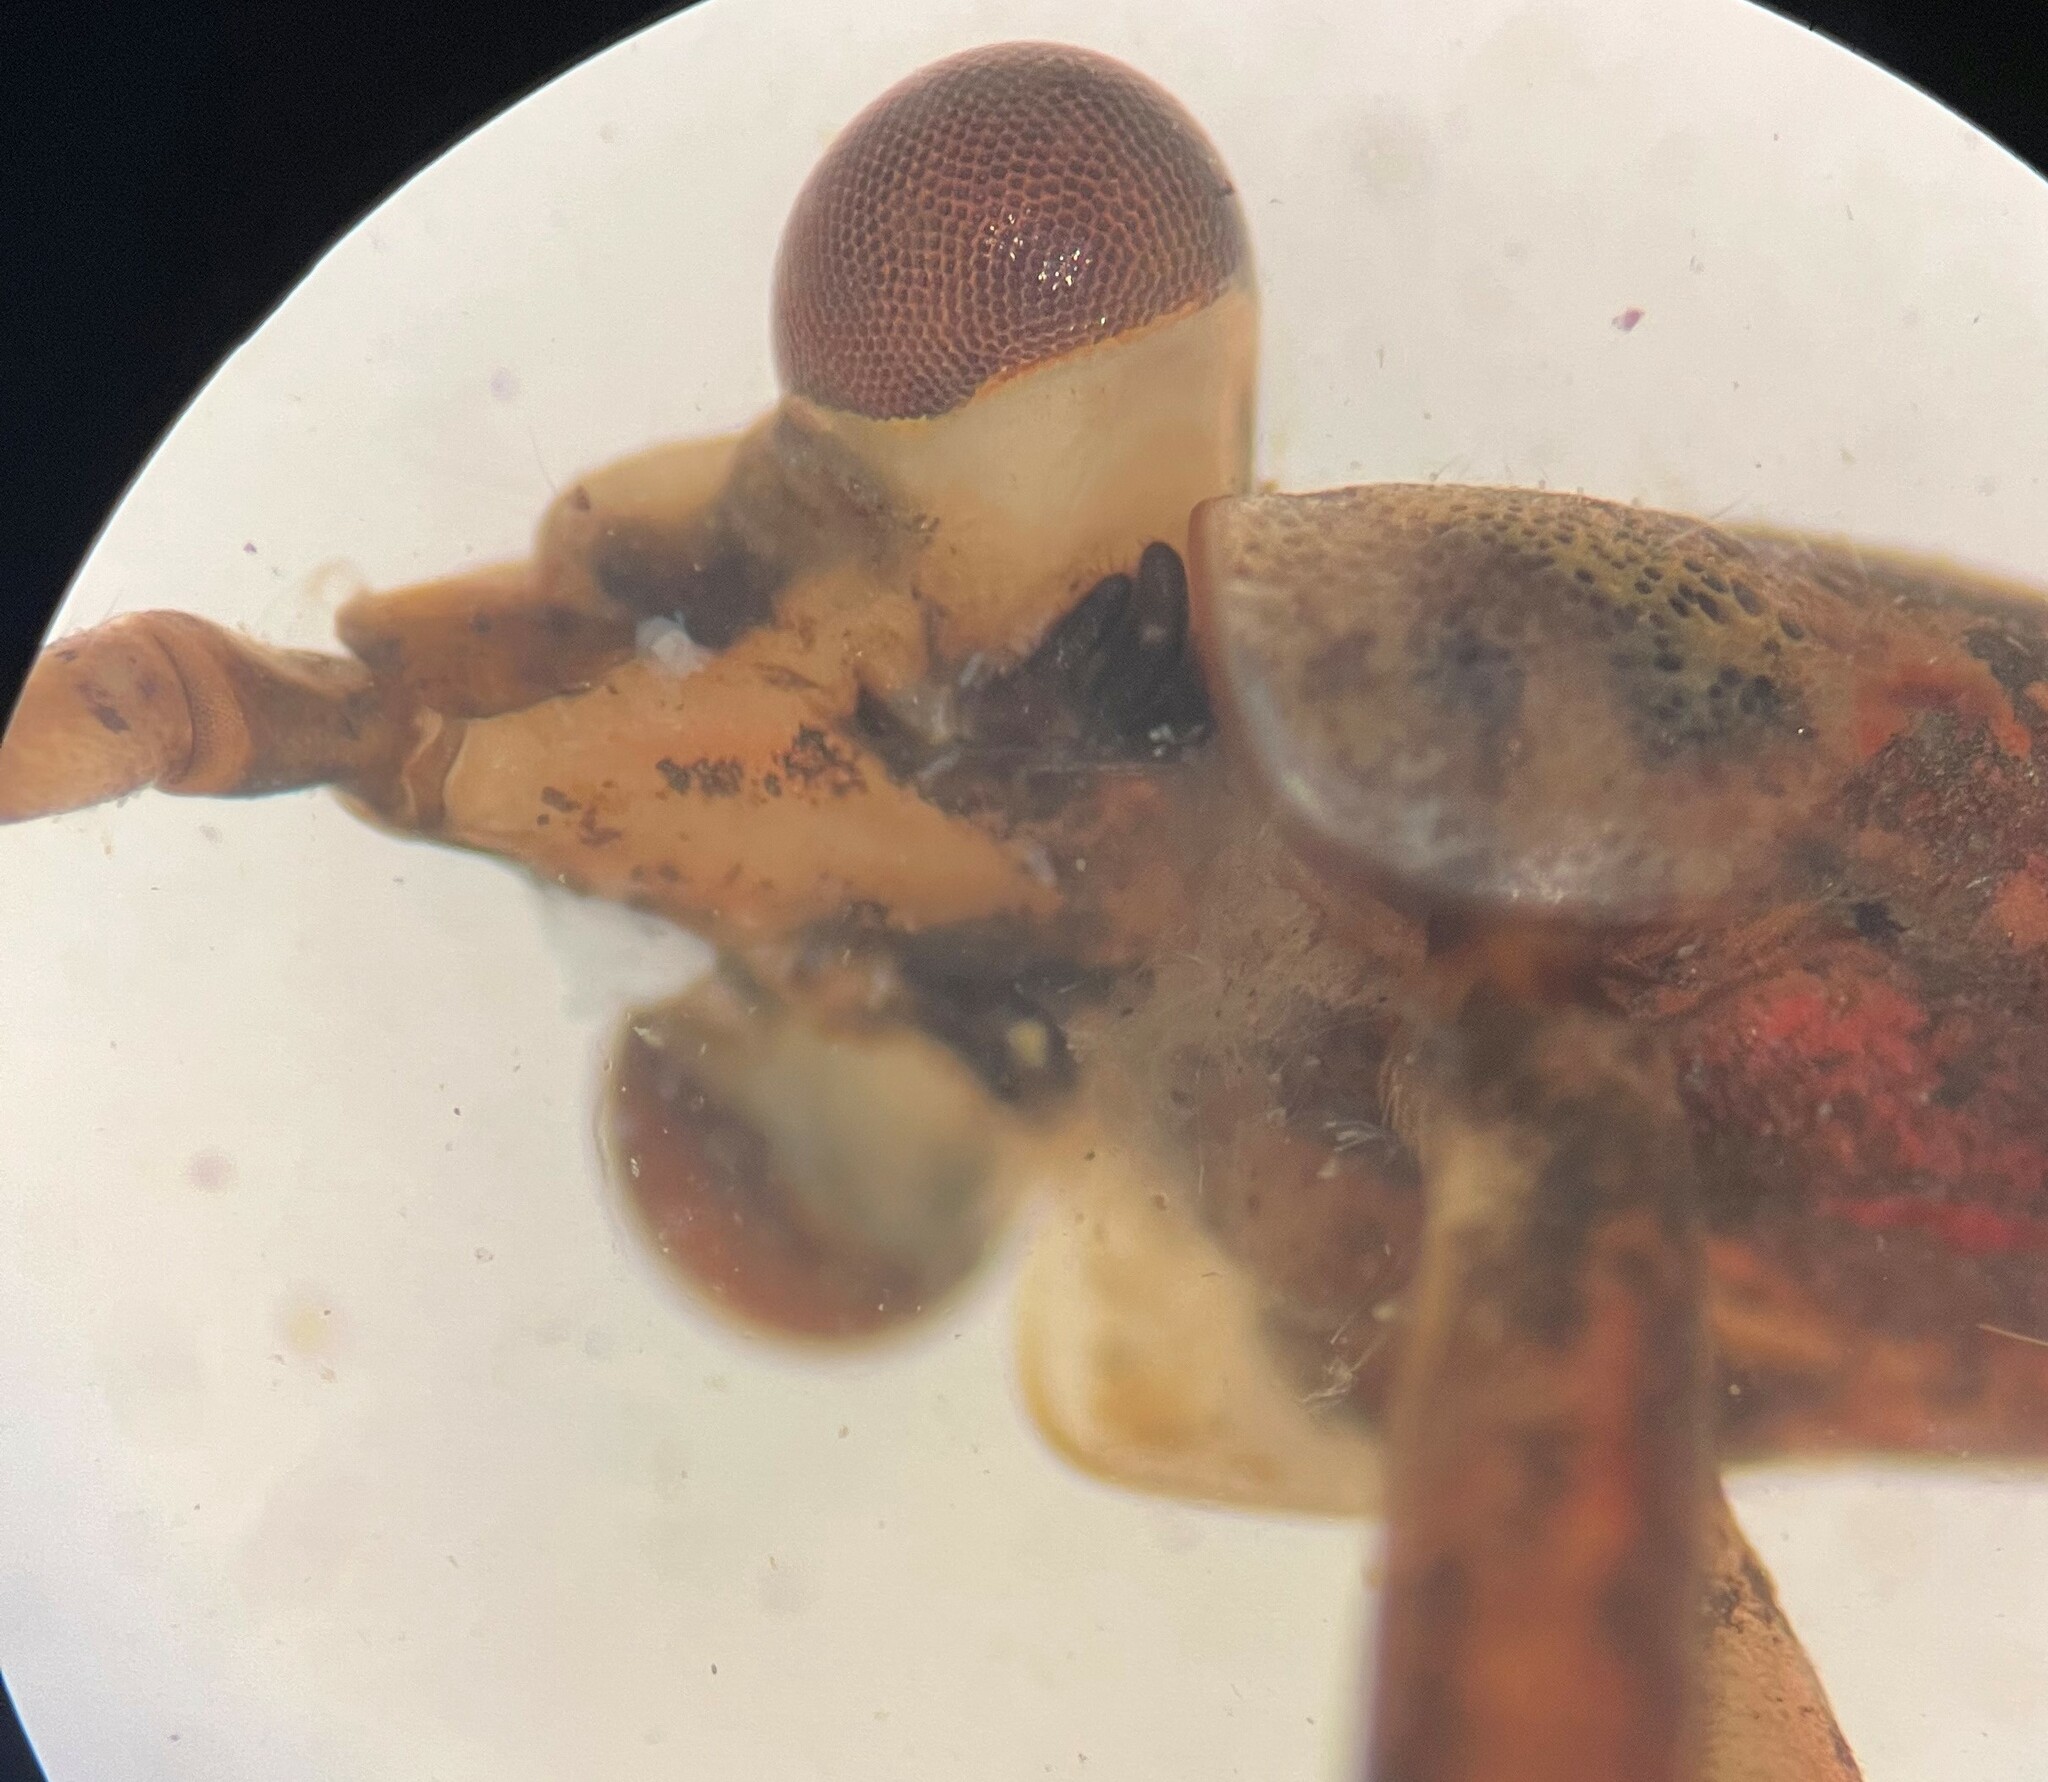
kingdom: Animalia
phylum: Arthropoda
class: Insecta
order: Hemiptera
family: Nepidae
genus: Ranatra
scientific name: Ranatra fusca
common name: Brown waterscorpion
